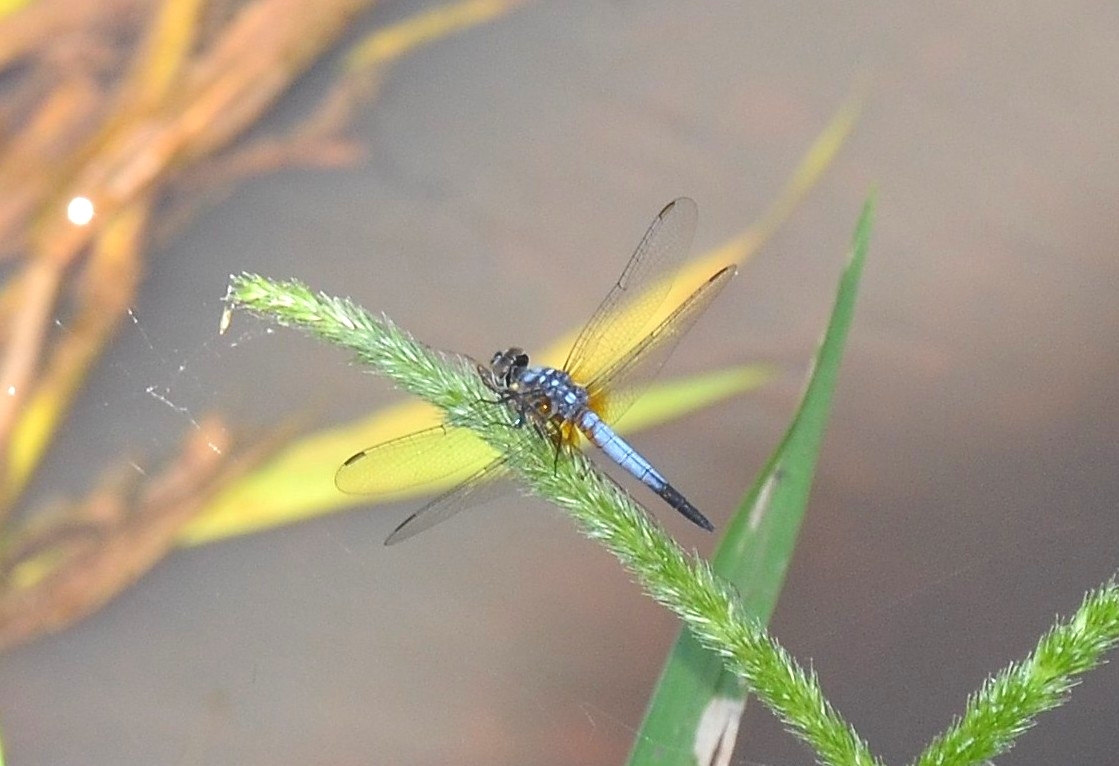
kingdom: Animalia
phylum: Arthropoda
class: Insecta
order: Odonata
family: Libellulidae
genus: Brachydiplax
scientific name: Brachydiplax chalybea
